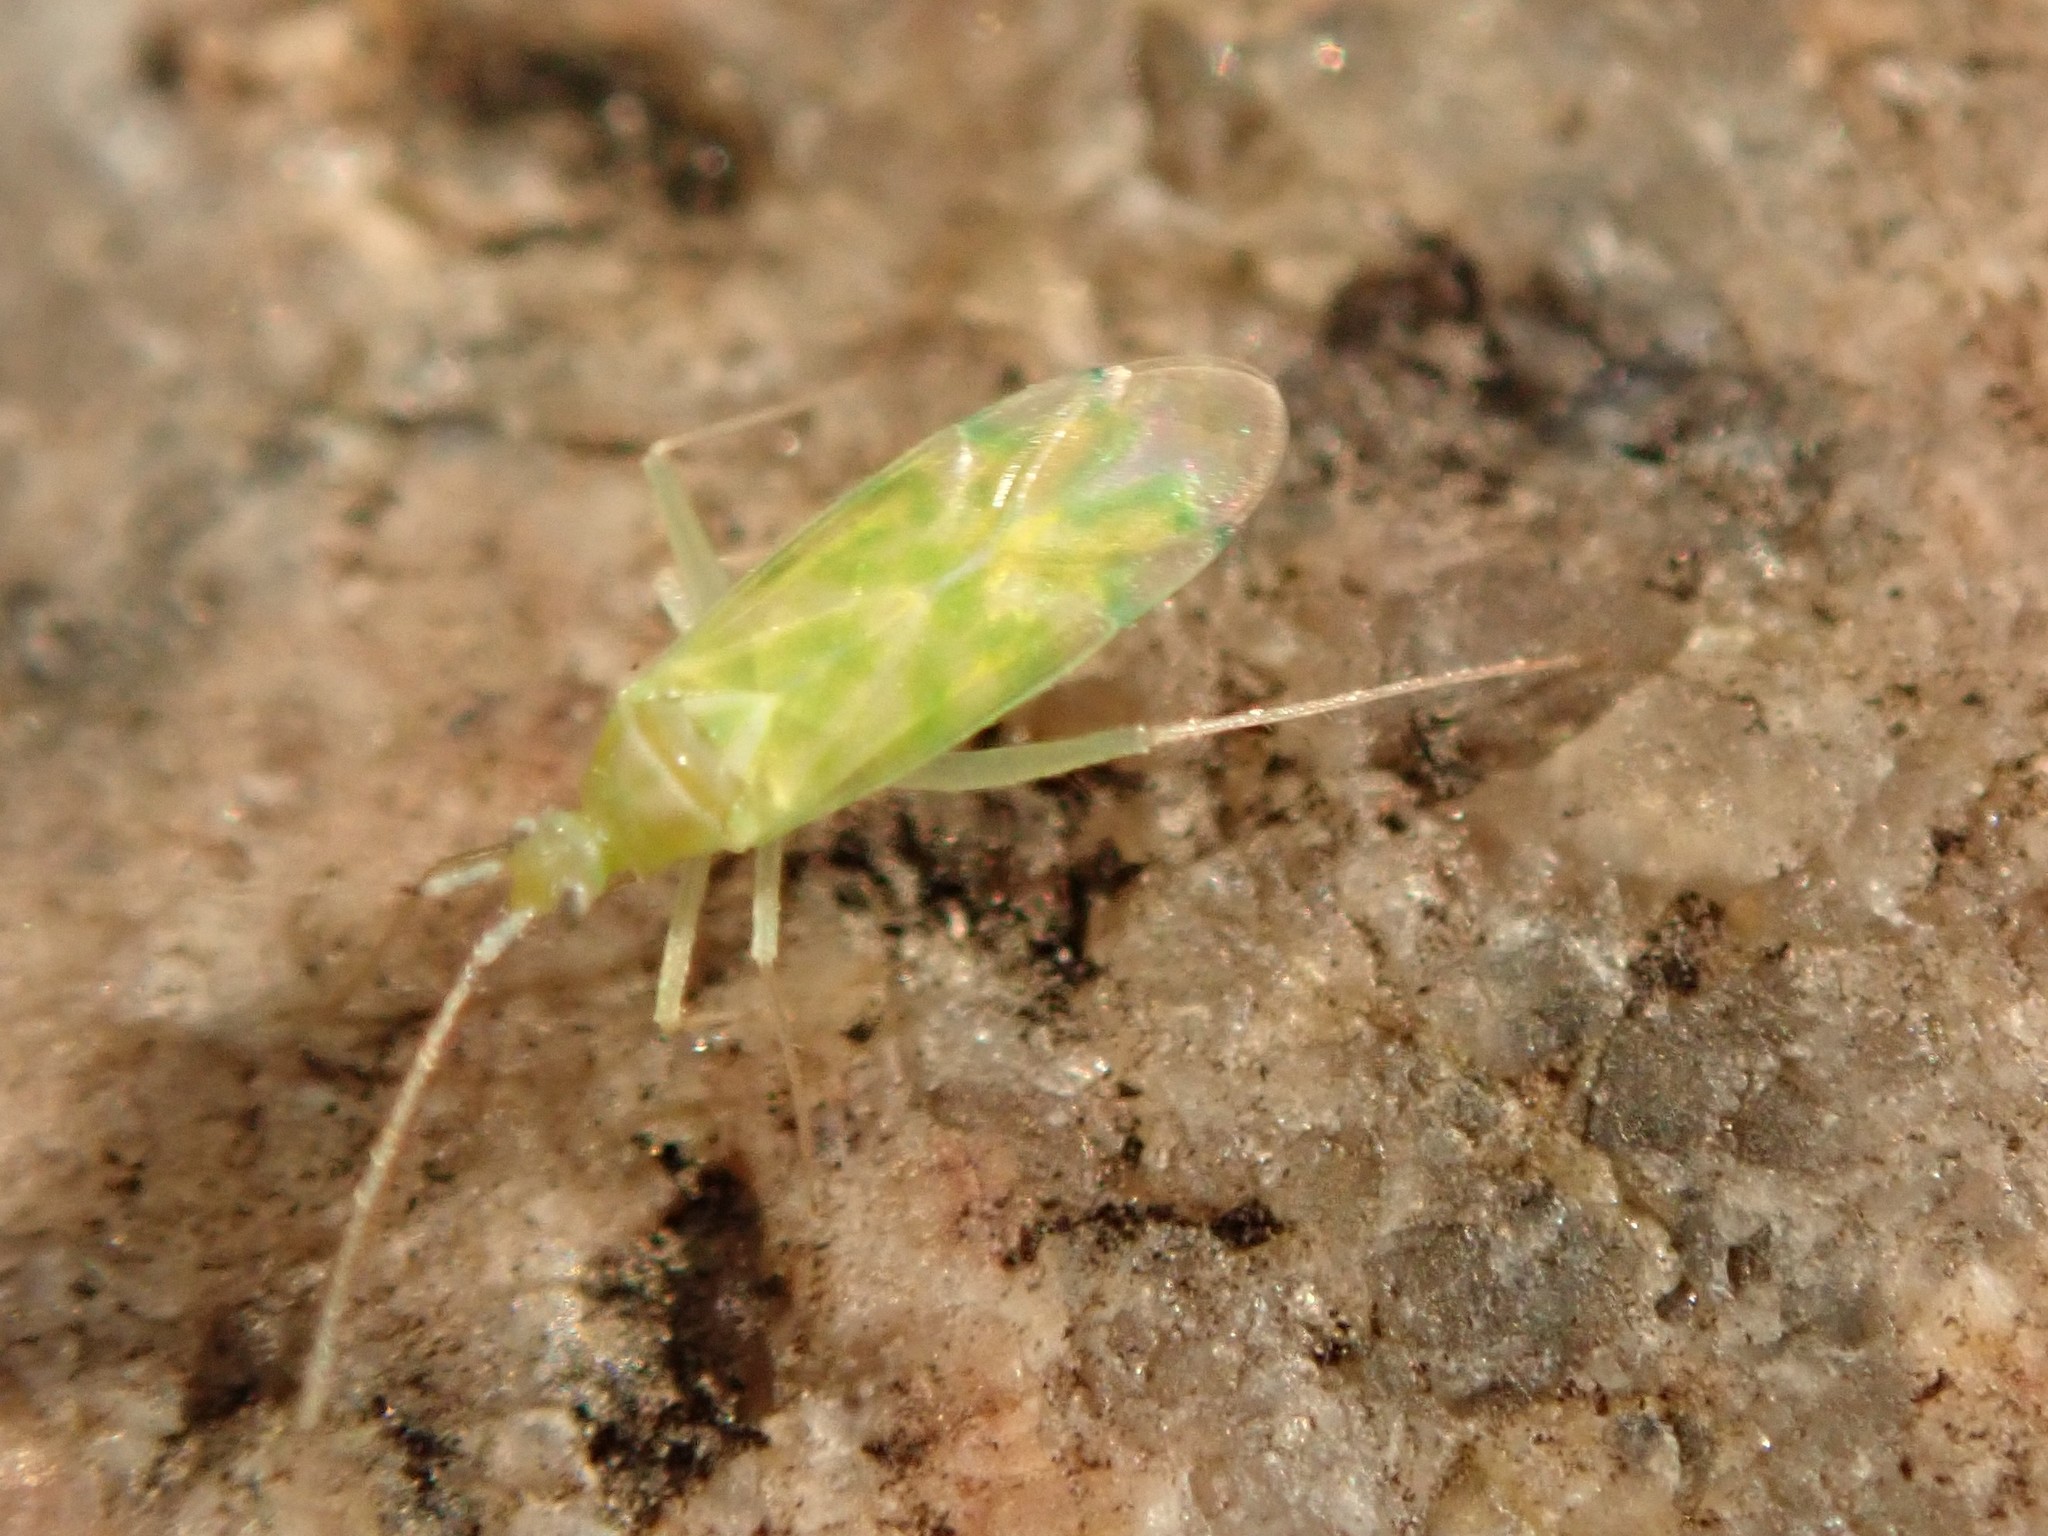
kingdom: Animalia
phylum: Arthropoda
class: Insecta
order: Hemiptera
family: Miridae
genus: Malacocoris
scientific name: Malacocoris chlorizans
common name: Plant bug
